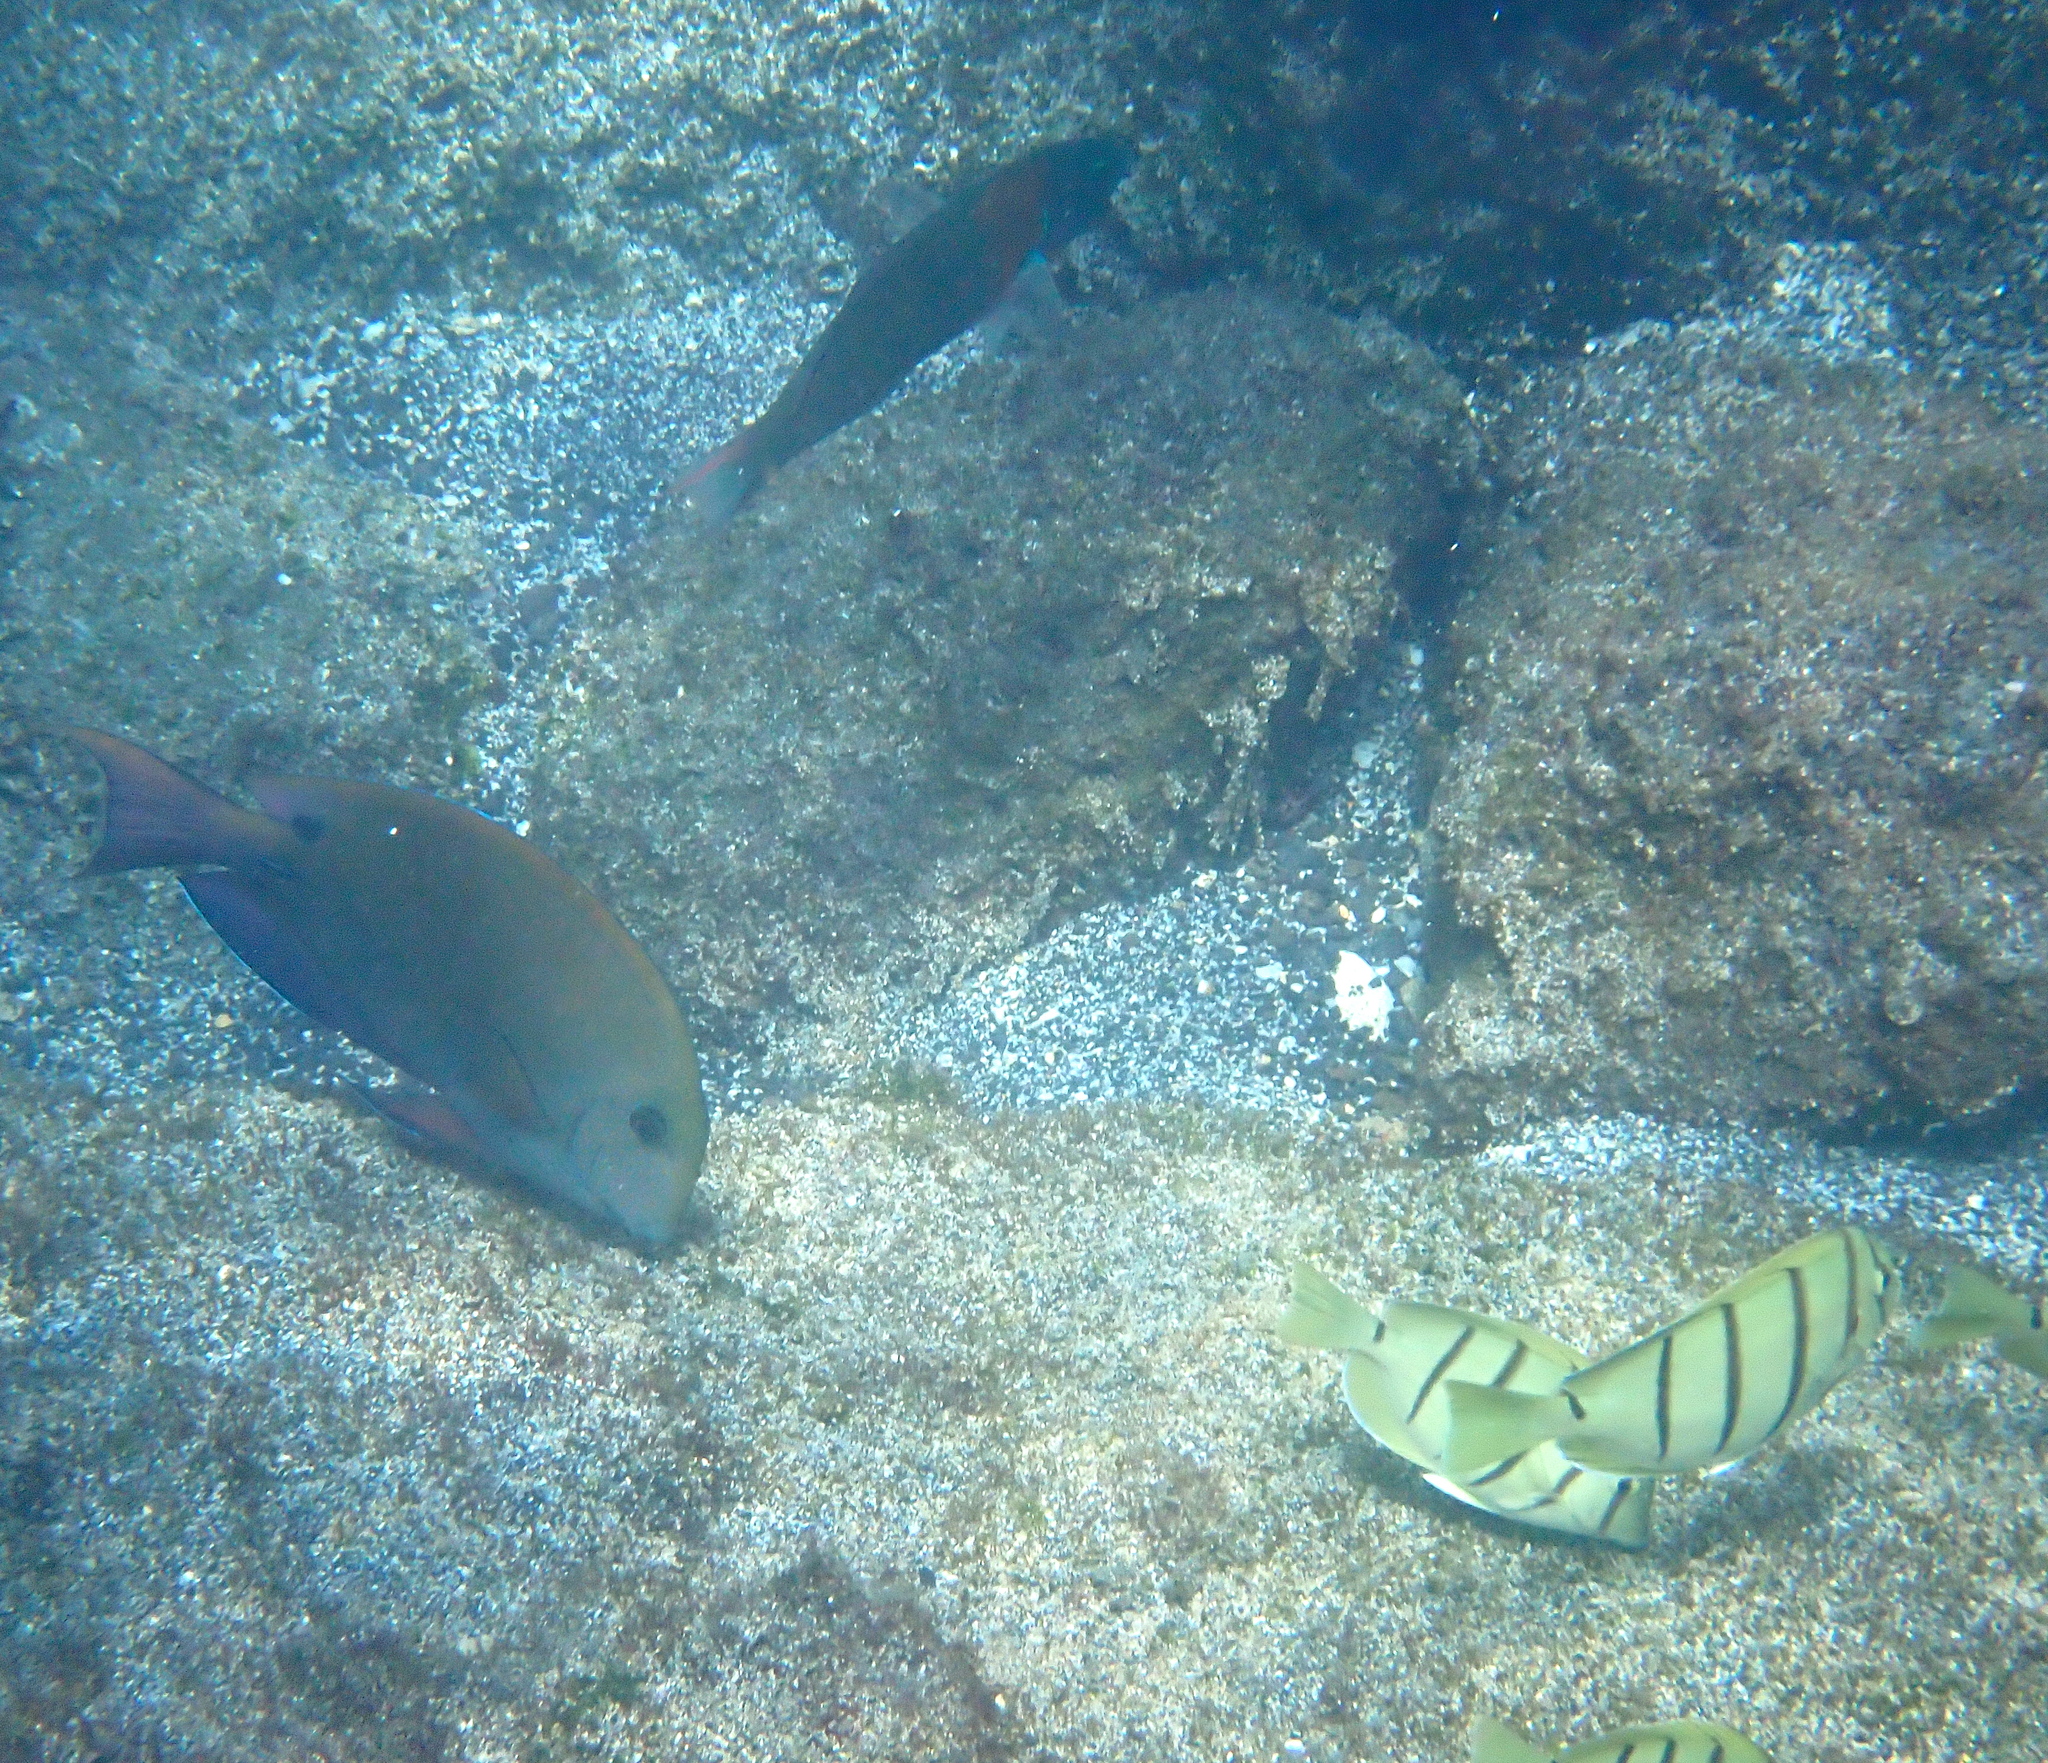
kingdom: Animalia
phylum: Chordata
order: Perciformes
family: Acanthuridae
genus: Acanthurus
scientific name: Acanthurus nigrofuscus
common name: Blackspot surgeonfish
